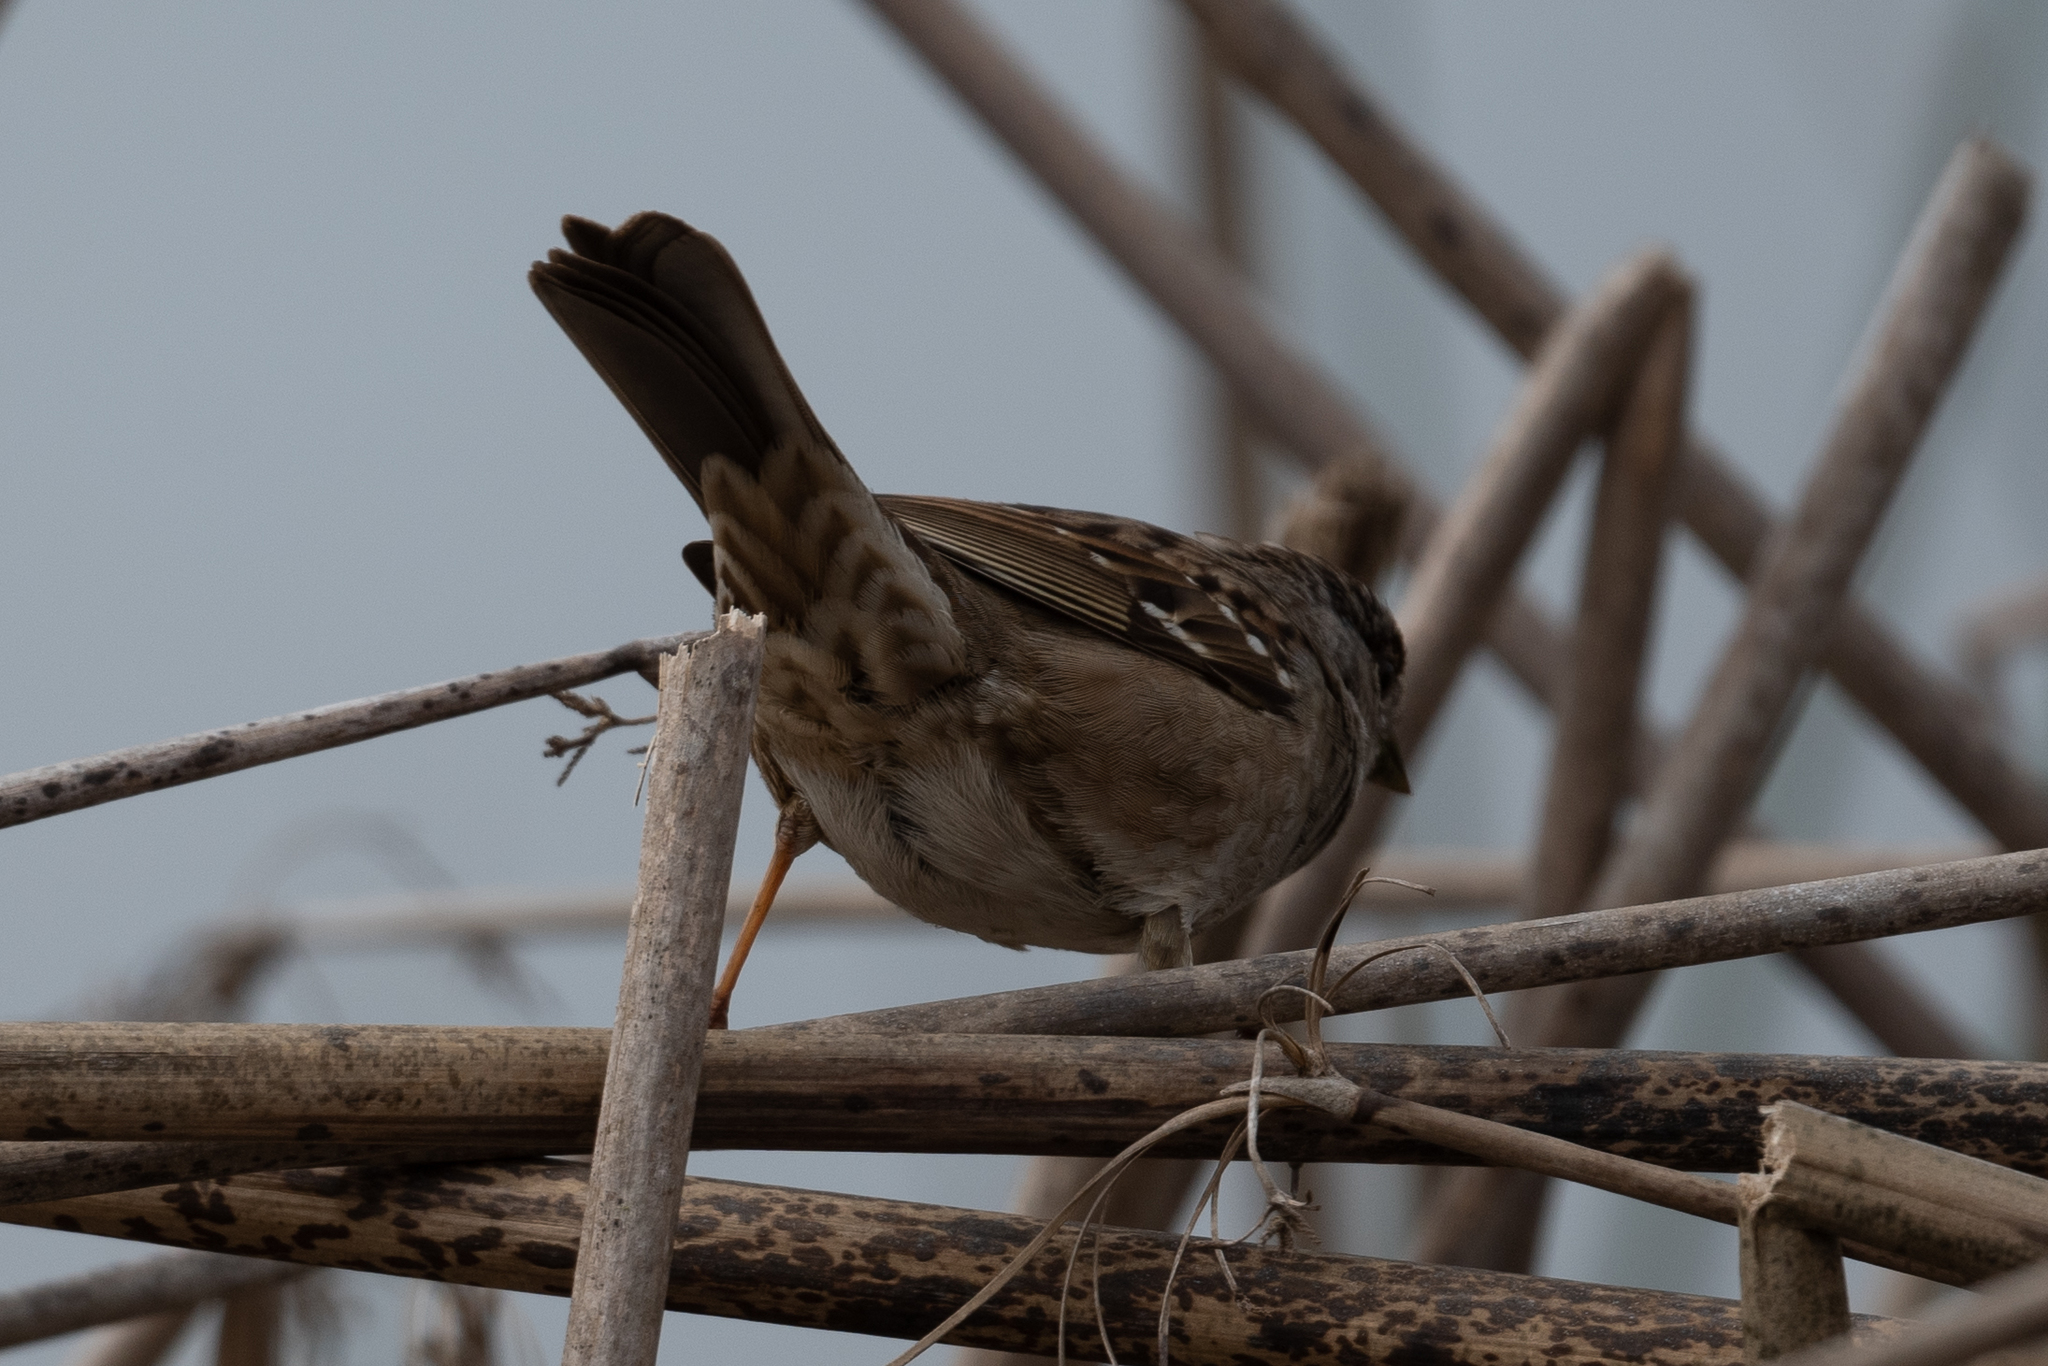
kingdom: Animalia
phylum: Chordata
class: Aves
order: Passeriformes
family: Passerellidae
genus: Zonotrichia
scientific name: Zonotrichia atricapilla
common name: Golden-crowned sparrow
